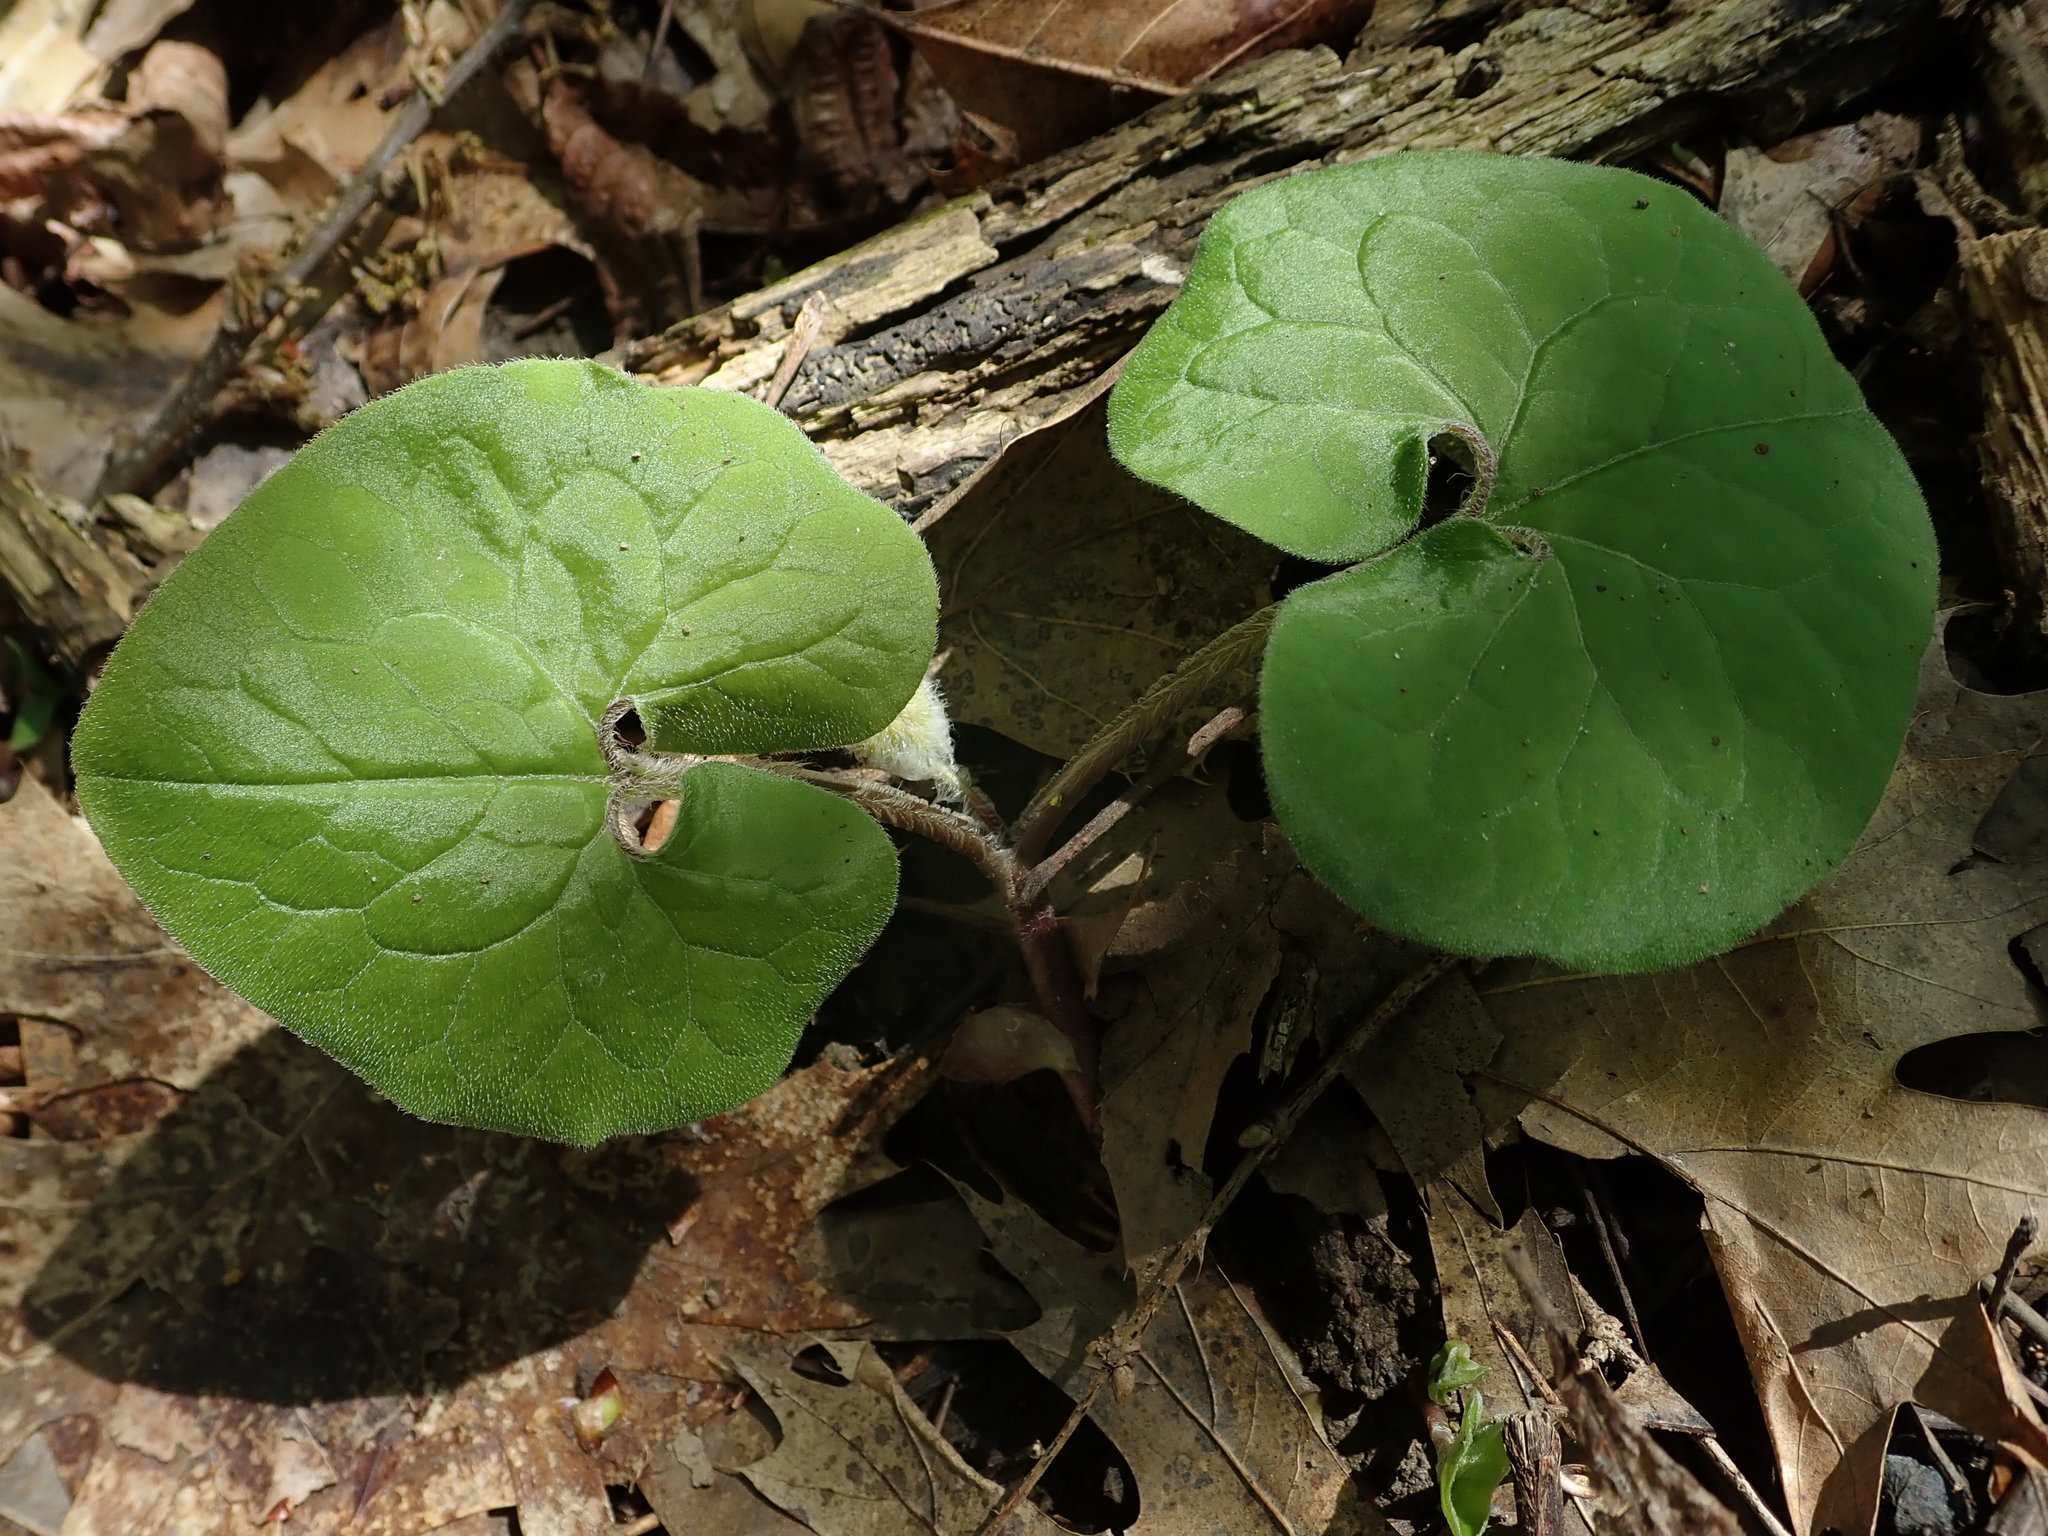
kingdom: Plantae
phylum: Tracheophyta
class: Magnoliopsida
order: Piperales
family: Aristolochiaceae
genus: Asarum
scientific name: Asarum canadense
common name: Wild ginger
